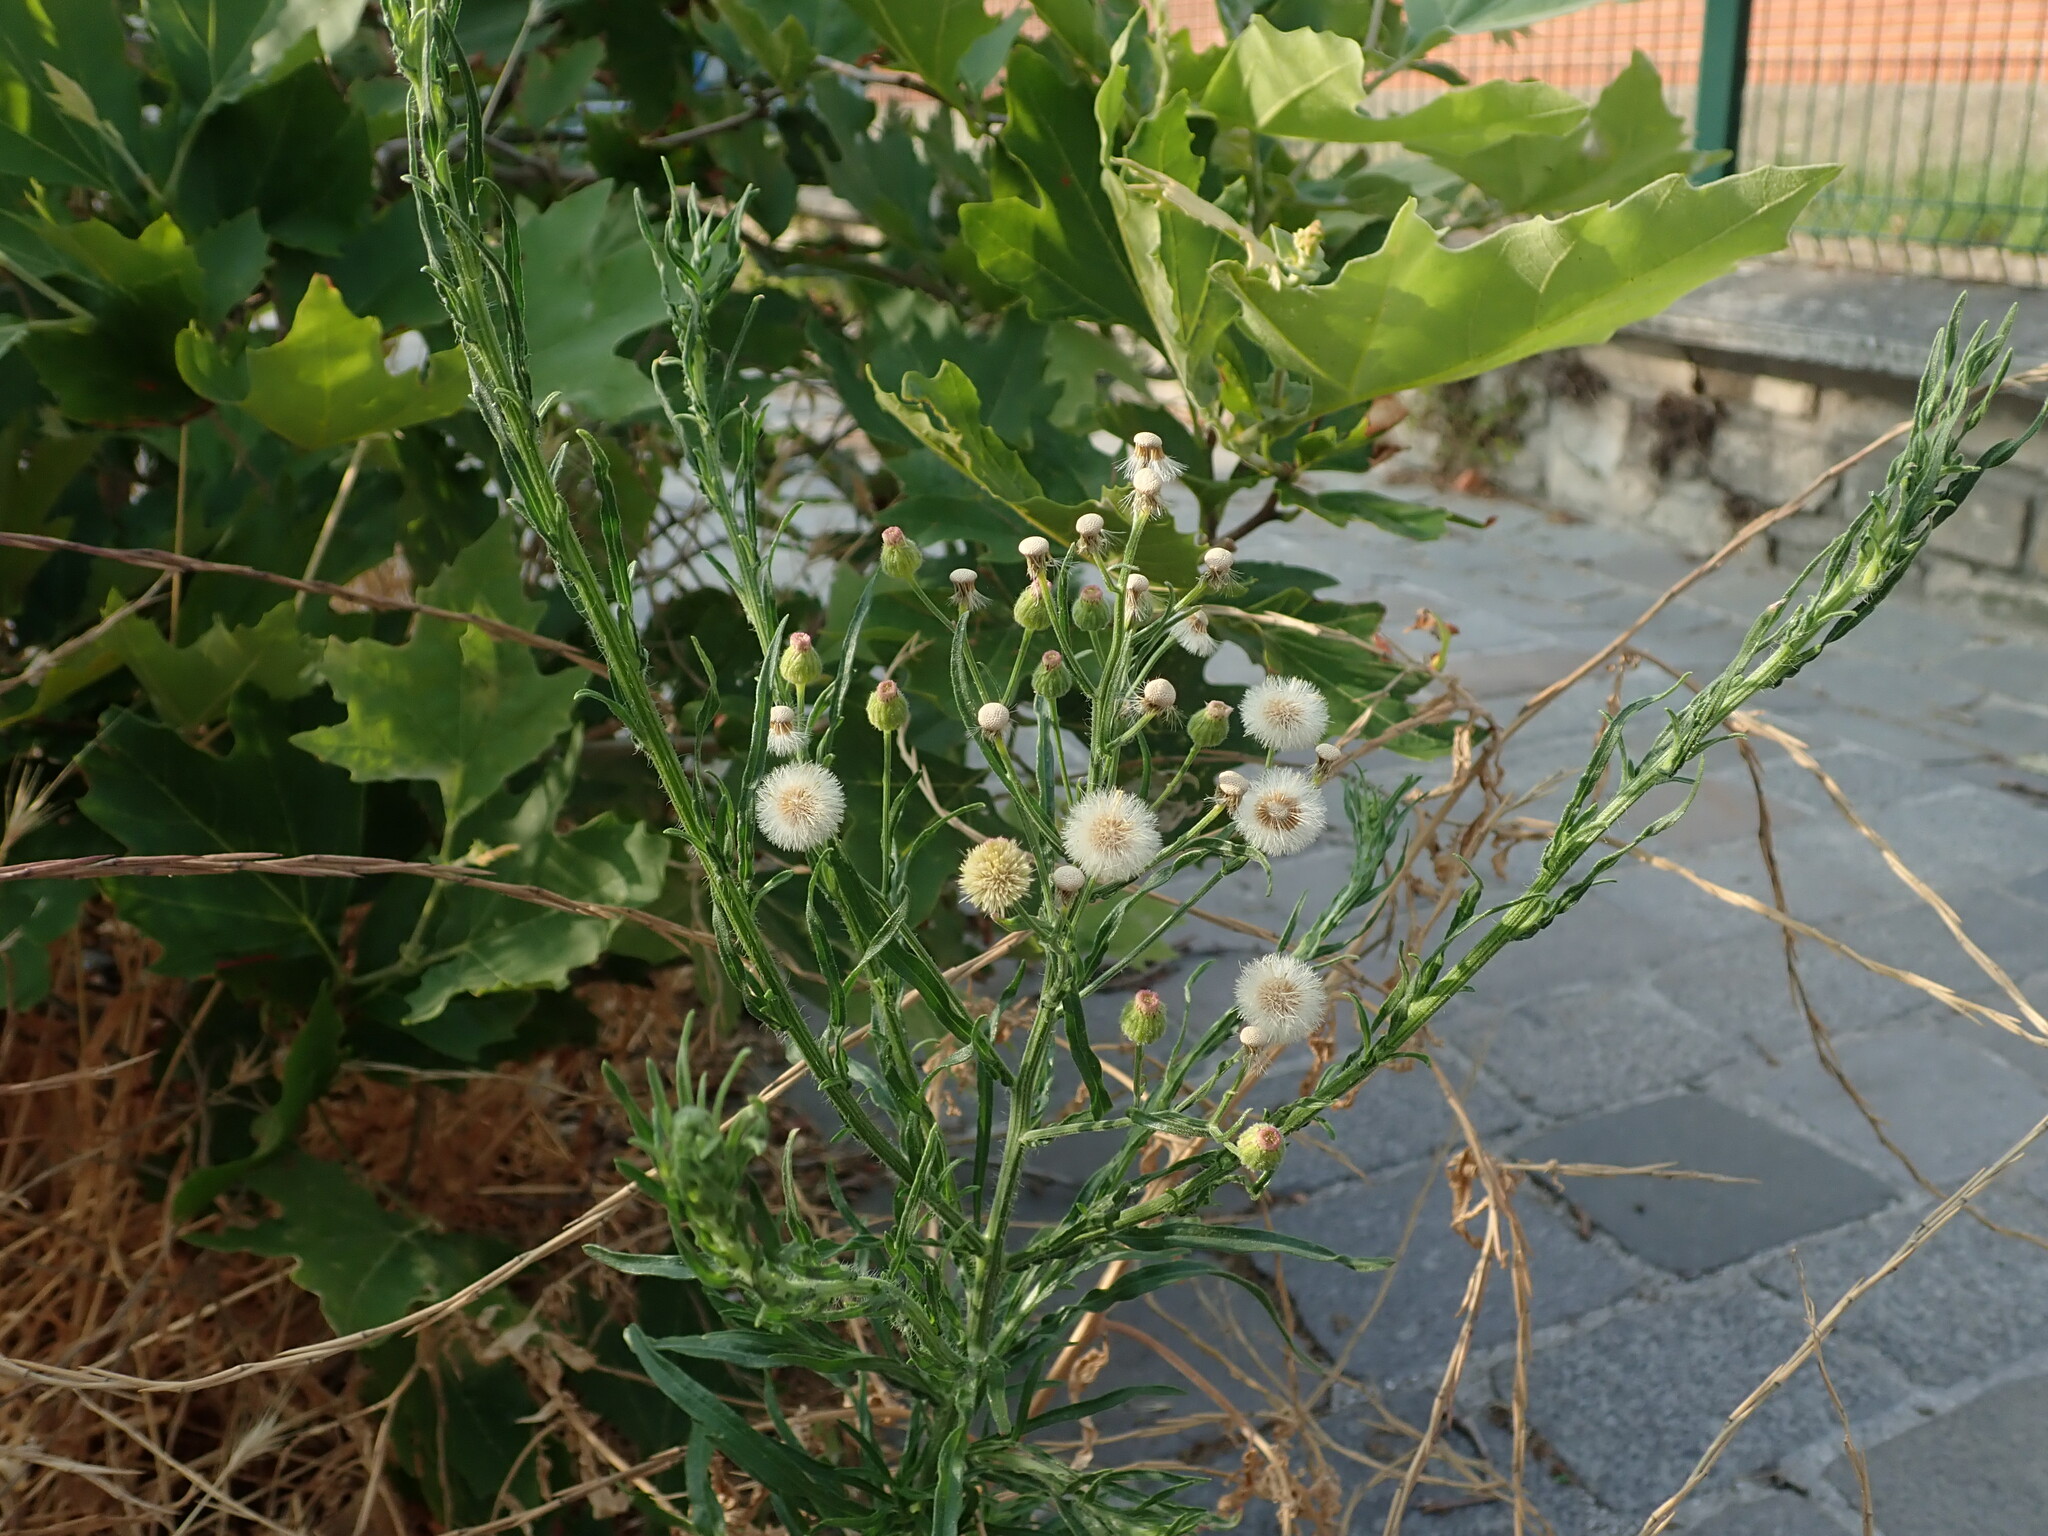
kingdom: Plantae
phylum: Tracheophyta
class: Magnoliopsida
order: Asterales
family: Asteraceae
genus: Erigeron
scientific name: Erigeron bonariensis
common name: Argentine fleabane
